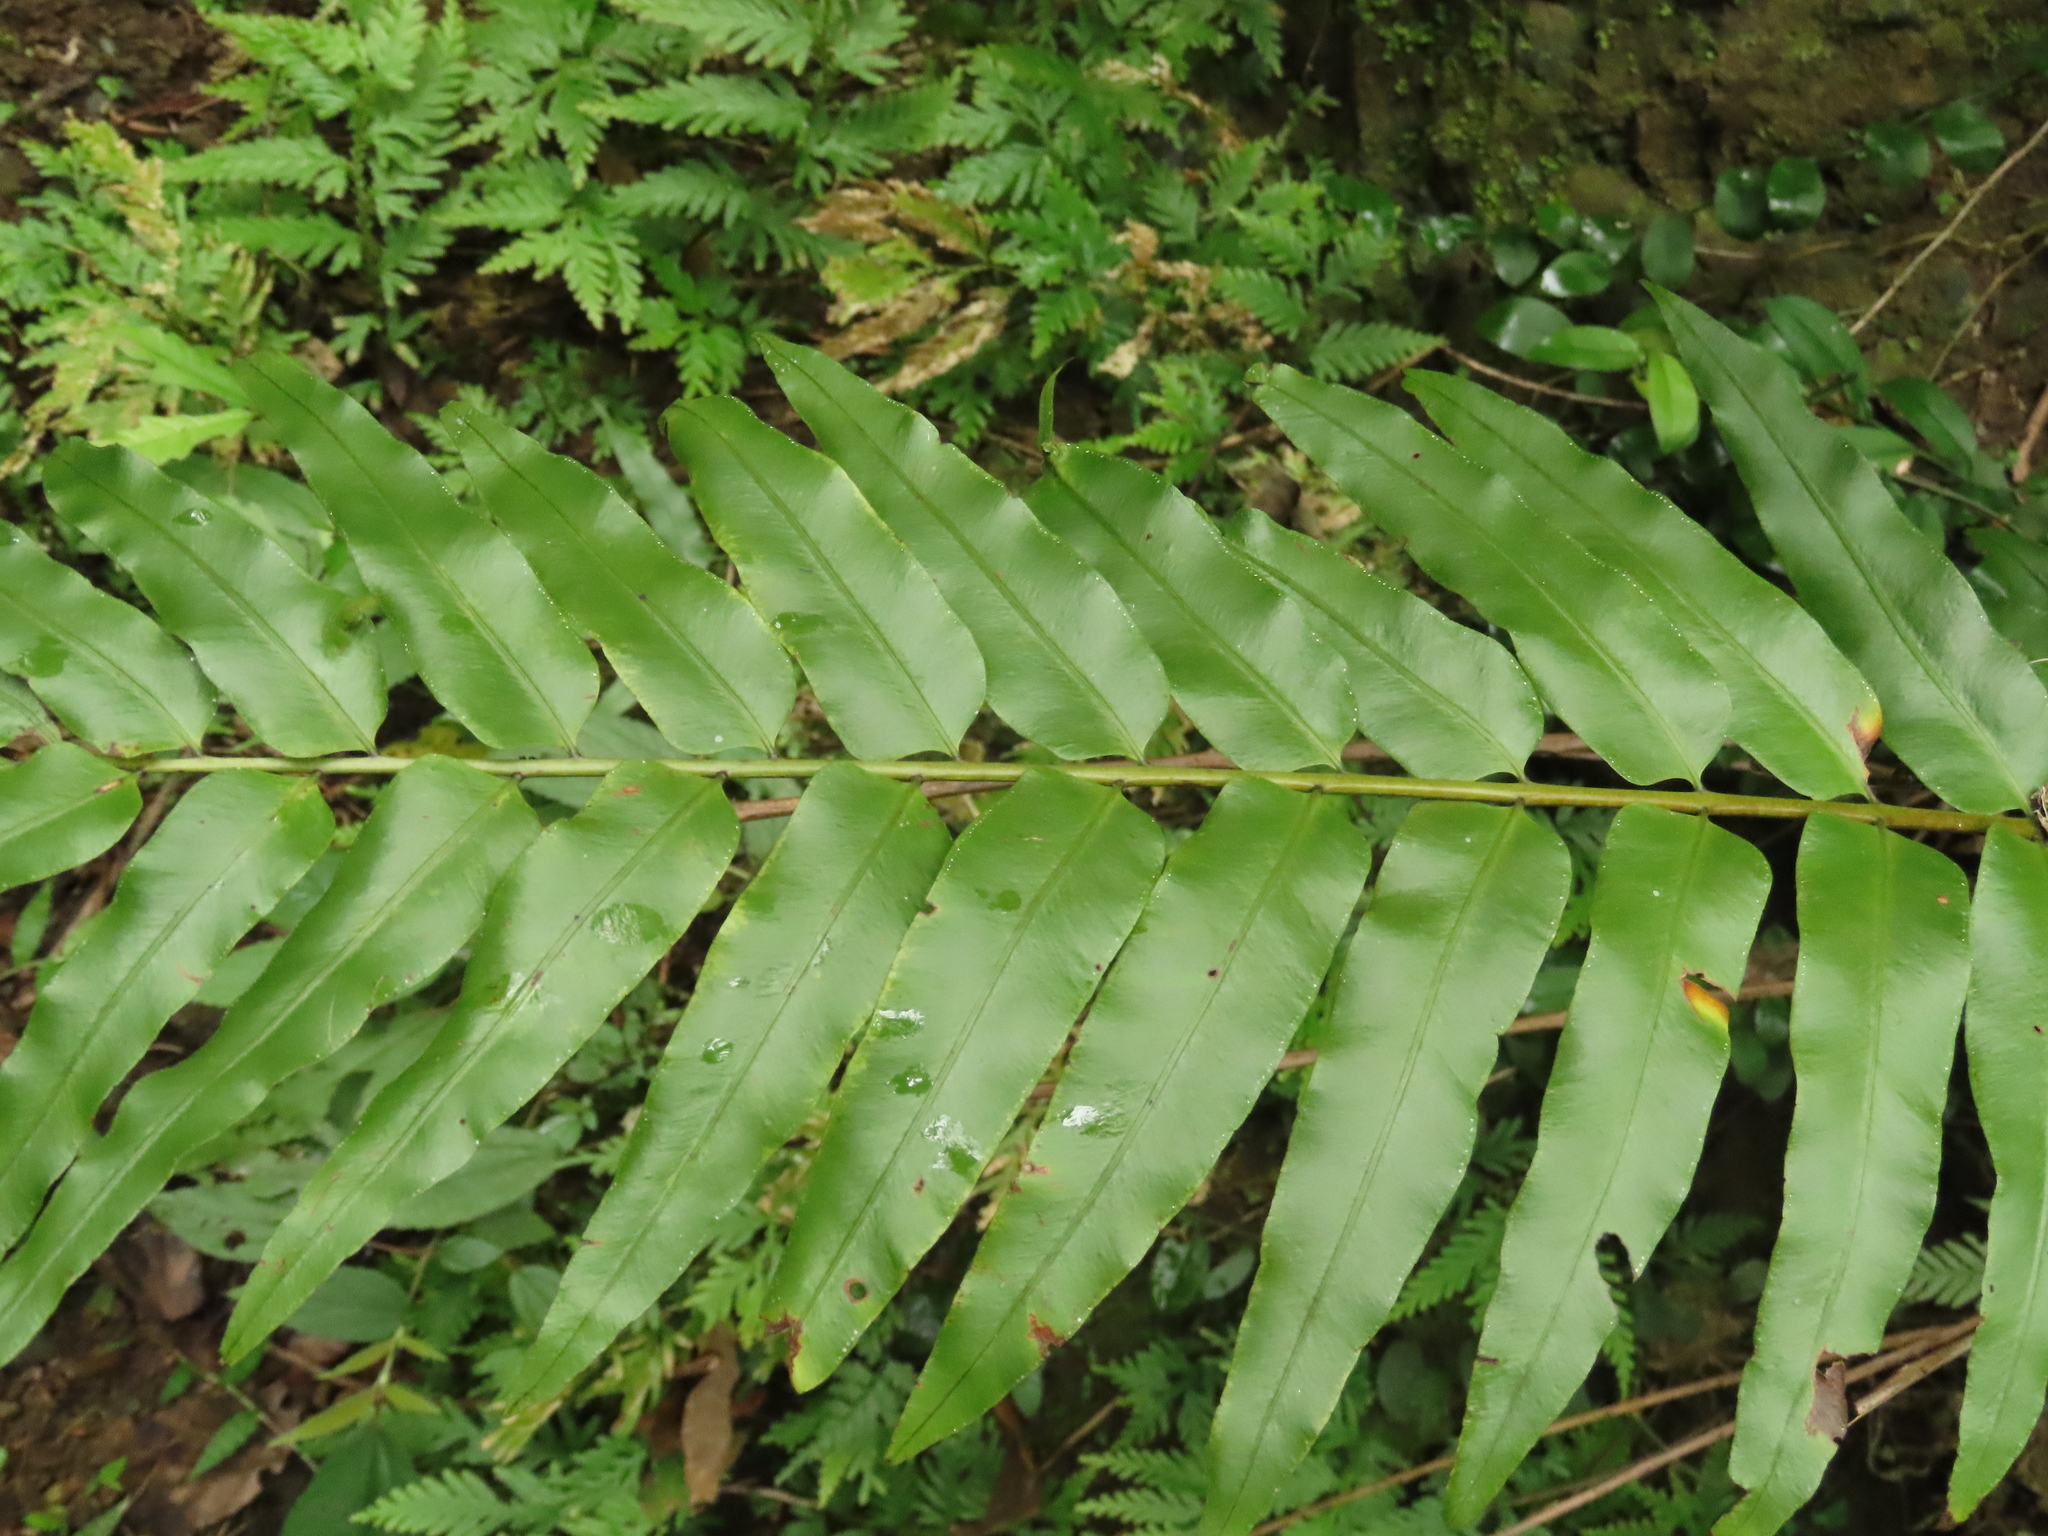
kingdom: Plantae
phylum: Tracheophyta
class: Polypodiopsida
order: Polypodiales
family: Nephrolepidaceae
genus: Nephrolepis
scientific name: Nephrolepis biserrata
